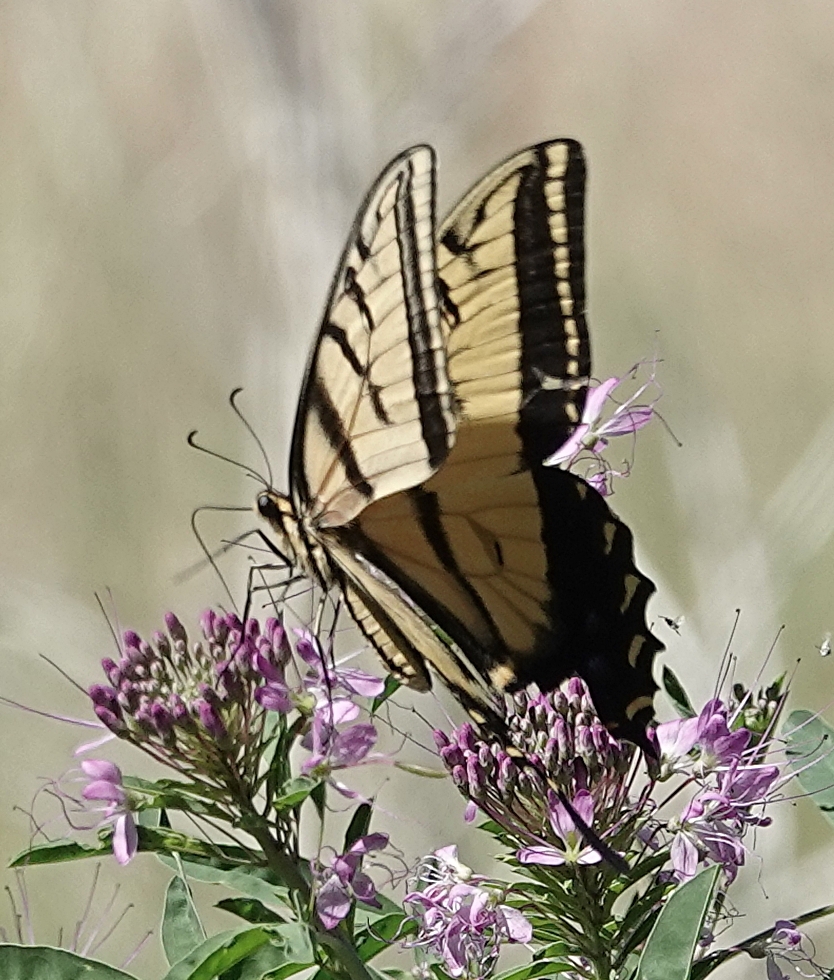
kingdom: Animalia
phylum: Arthropoda
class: Insecta
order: Lepidoptera
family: Papilionidae
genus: Papilio
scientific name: Papilio multicaudata
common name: Two-tailed tiger swallowtail
